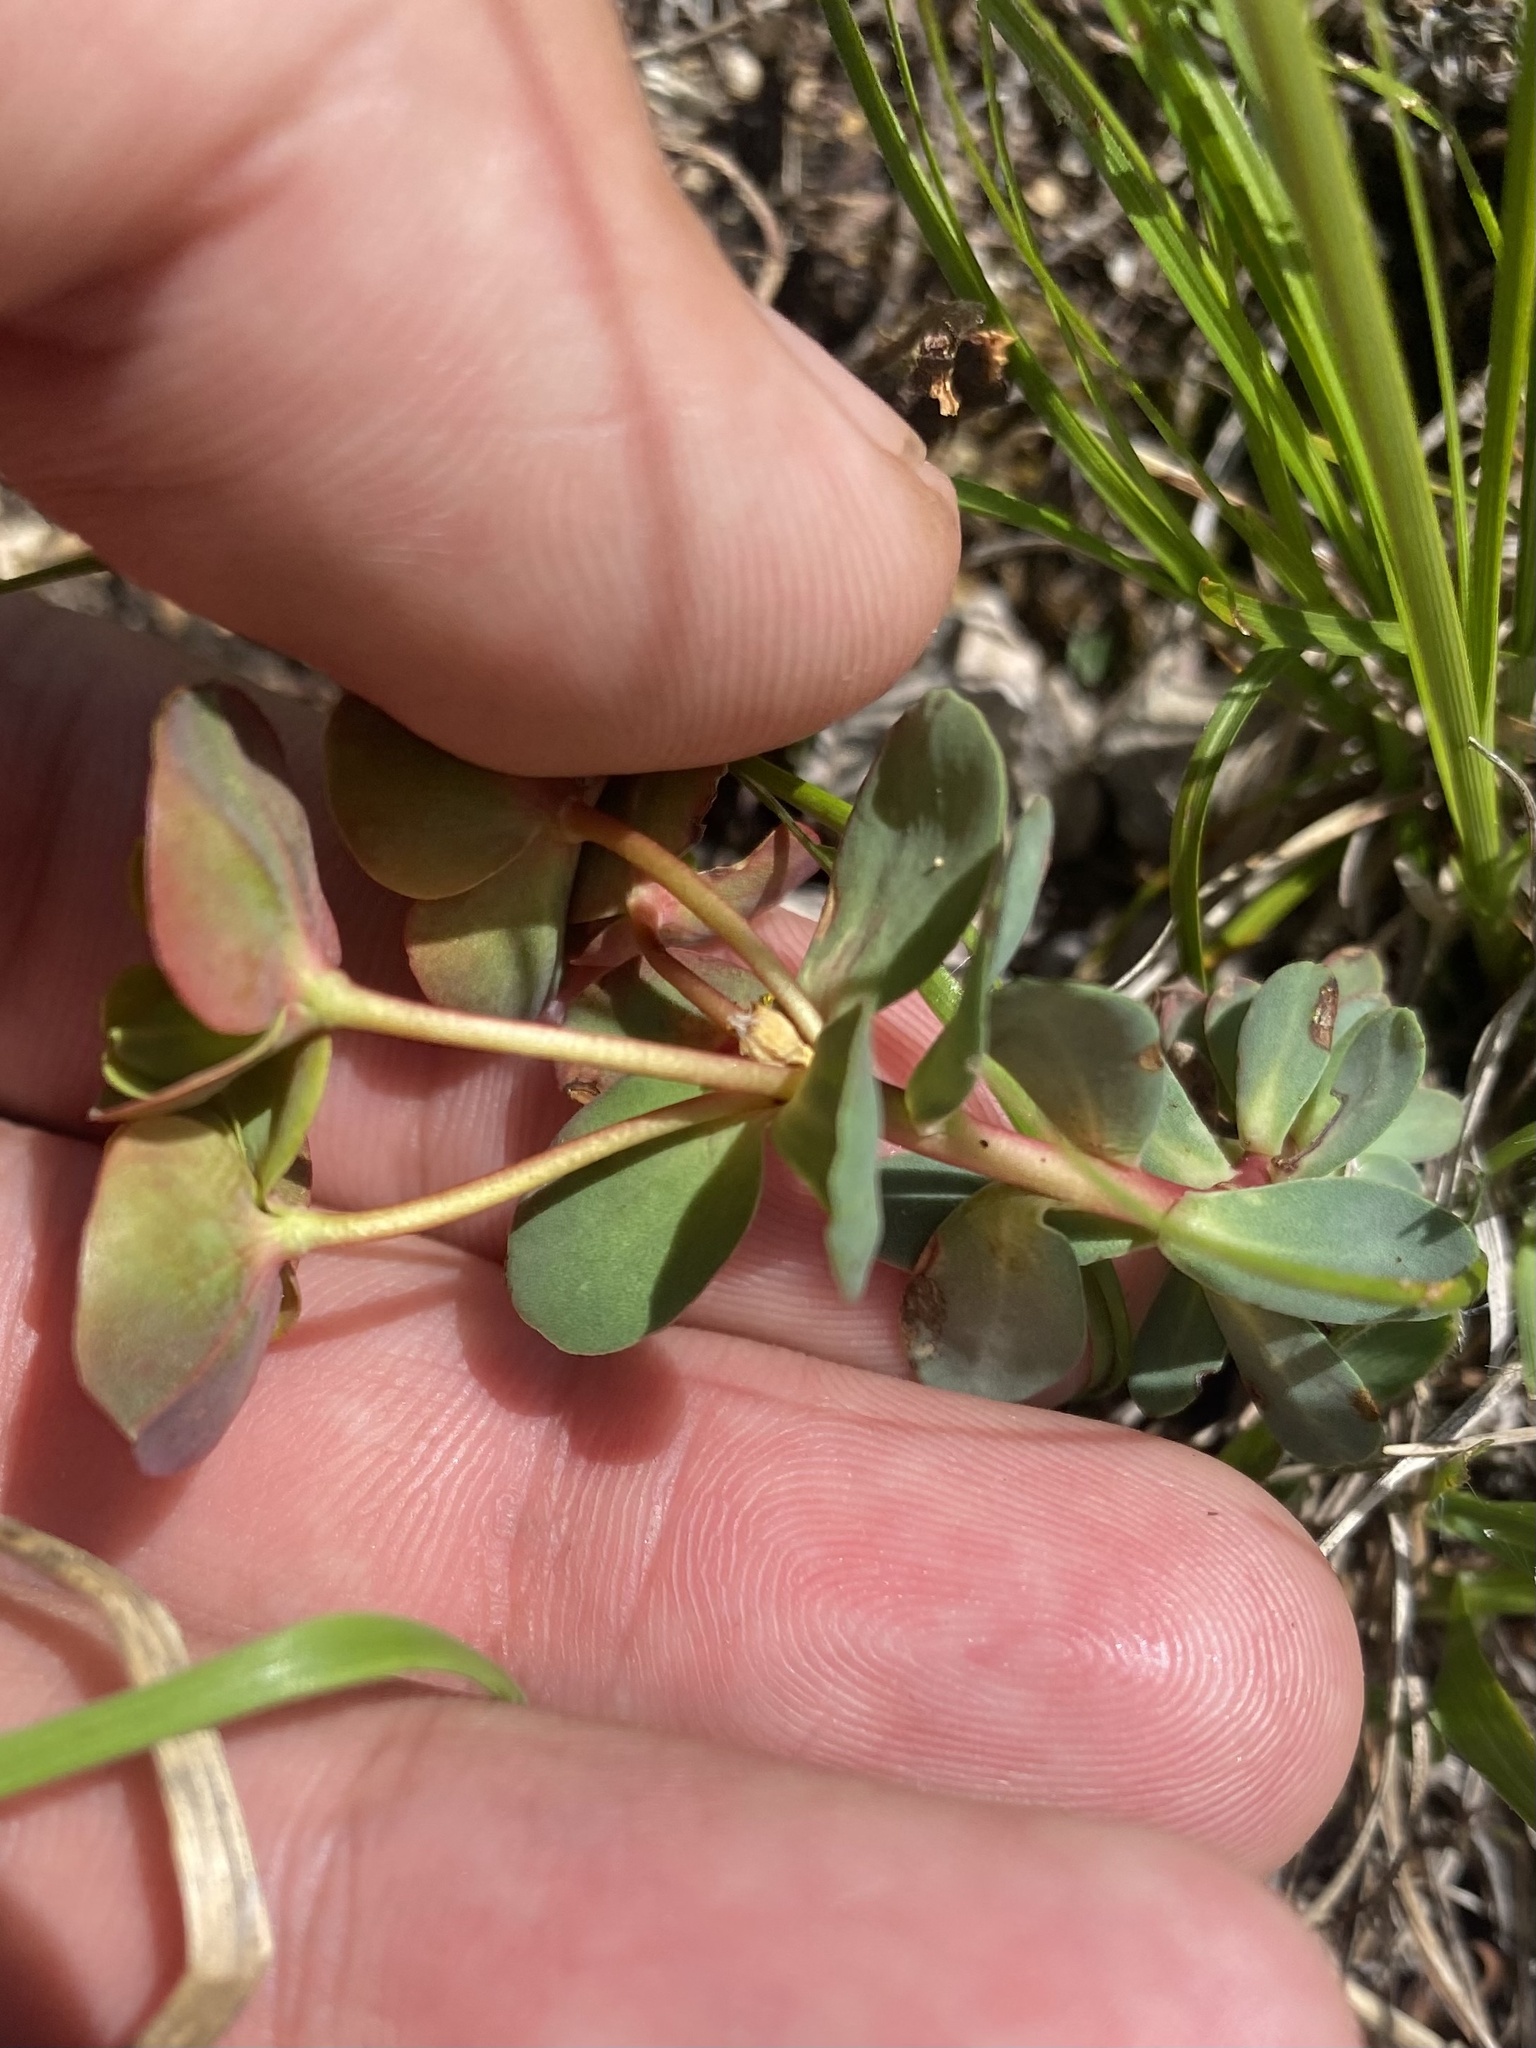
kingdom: Plantae
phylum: Tracheophyta
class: Magnoliopsida
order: Malpighiales
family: Euphorbiaceae
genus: Euphorbia
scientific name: Euphorbia petrophila
